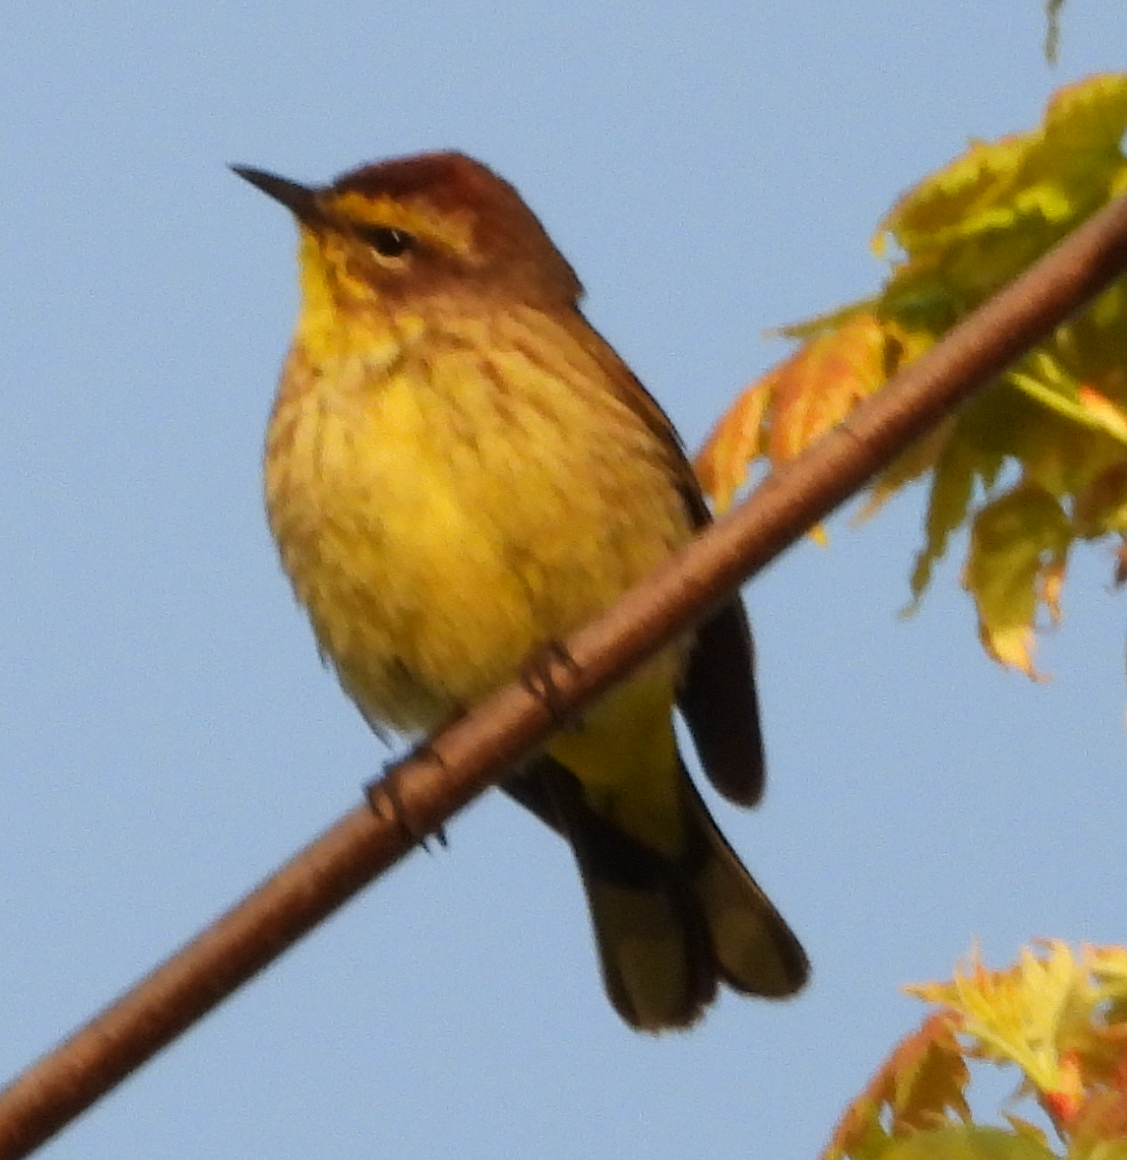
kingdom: Animalia
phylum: Chordata
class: Aves
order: Passeriformes
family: Parulidae
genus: Setophaga
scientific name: Setophaga palmarum
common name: Palm warbler
